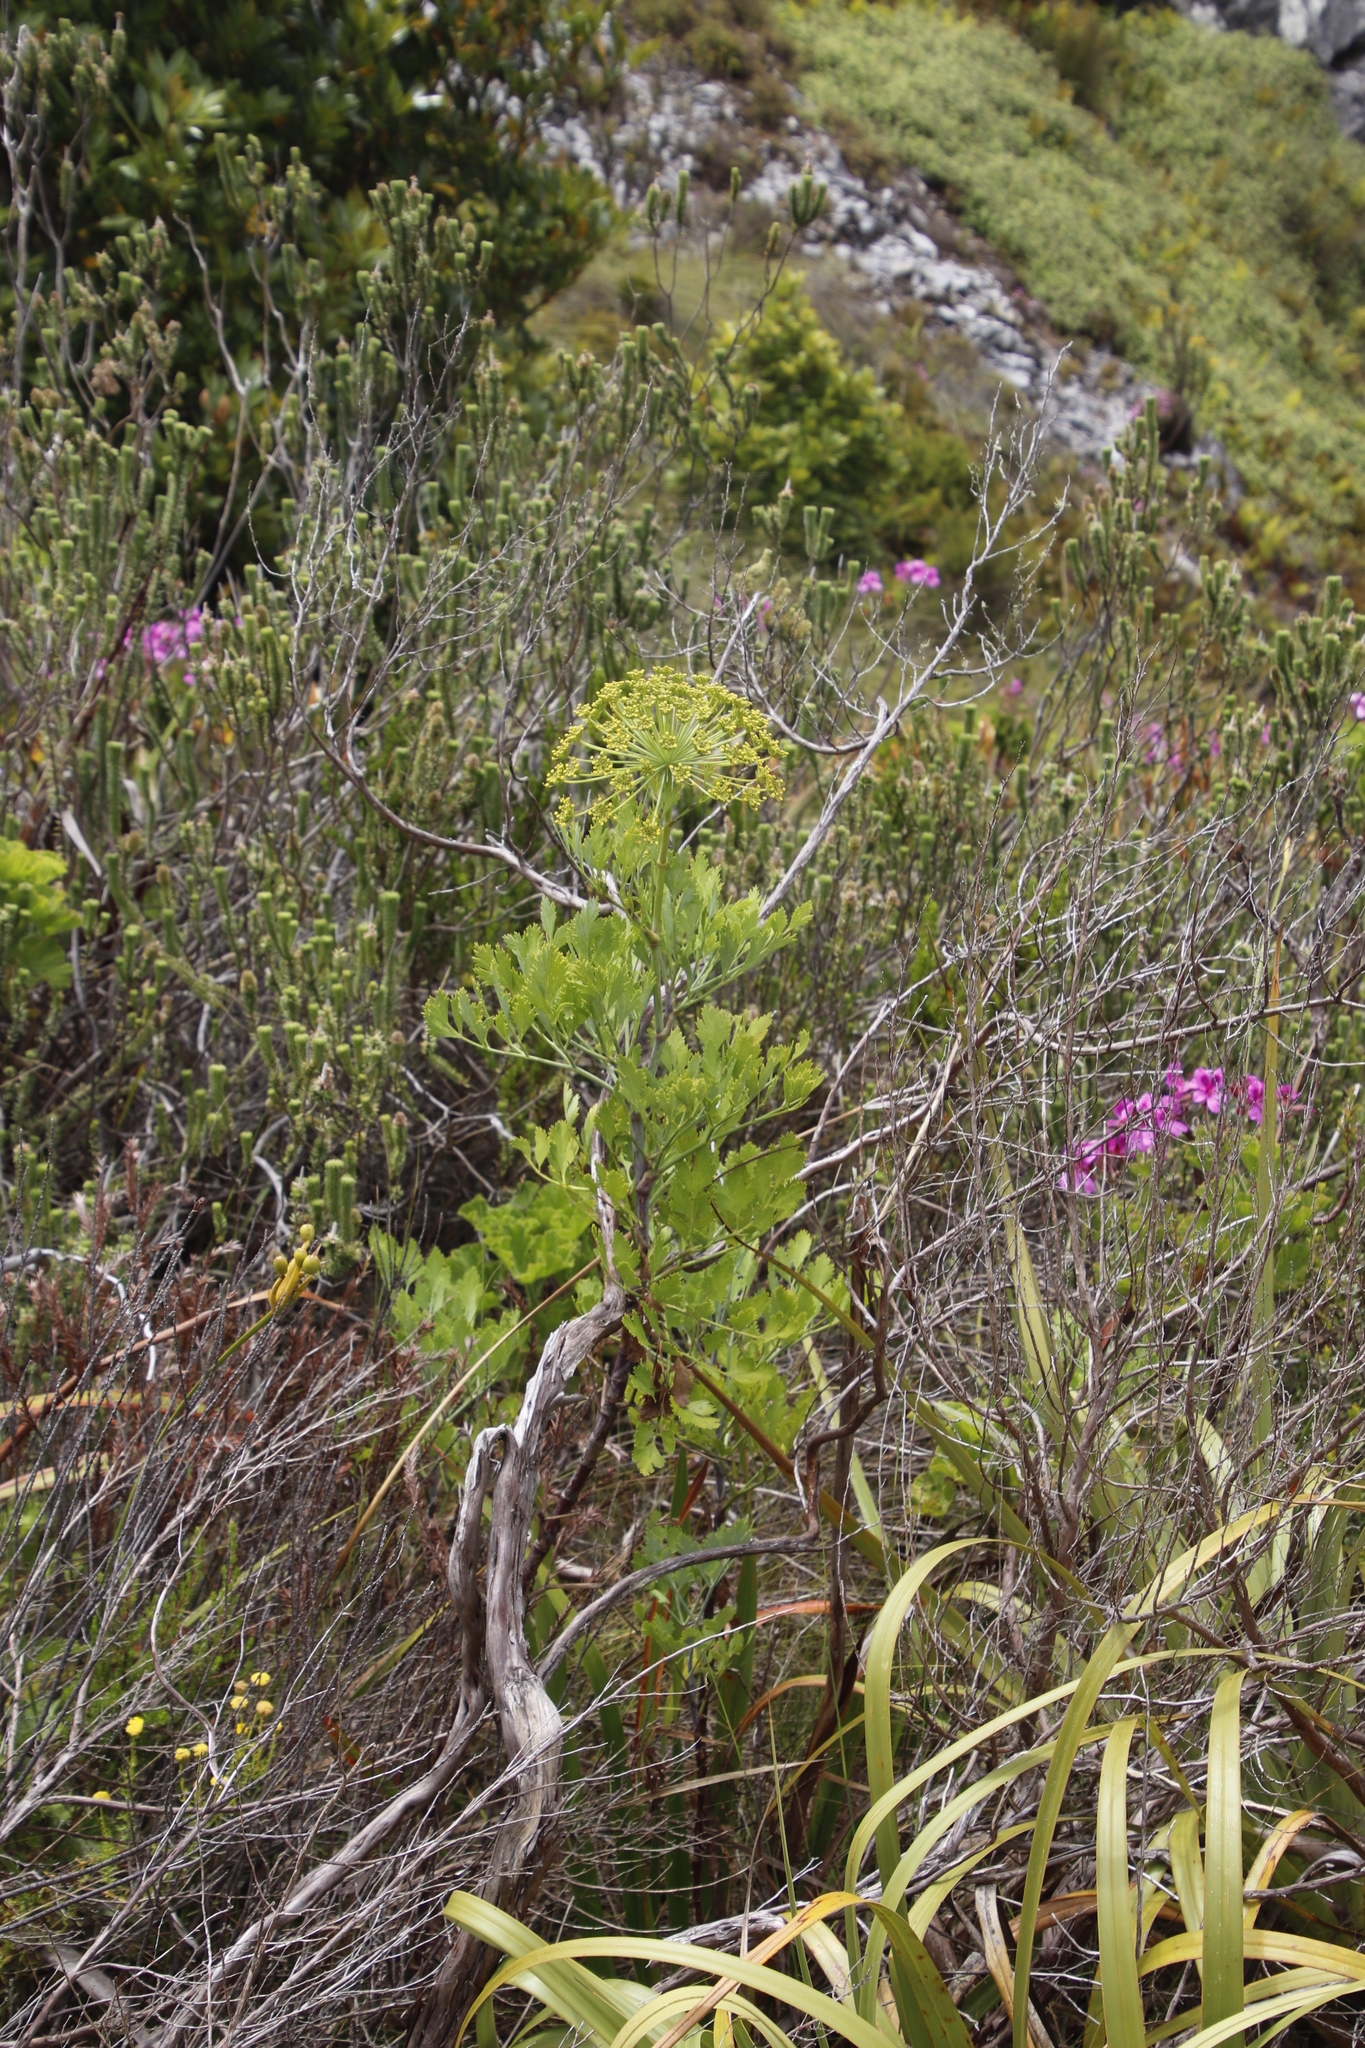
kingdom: Plantae
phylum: Tracheophyta
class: Magnoliopsida
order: Apiales
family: Apiaceae
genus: Notobubon
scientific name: Notobubon galbanum
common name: Blisterbush
